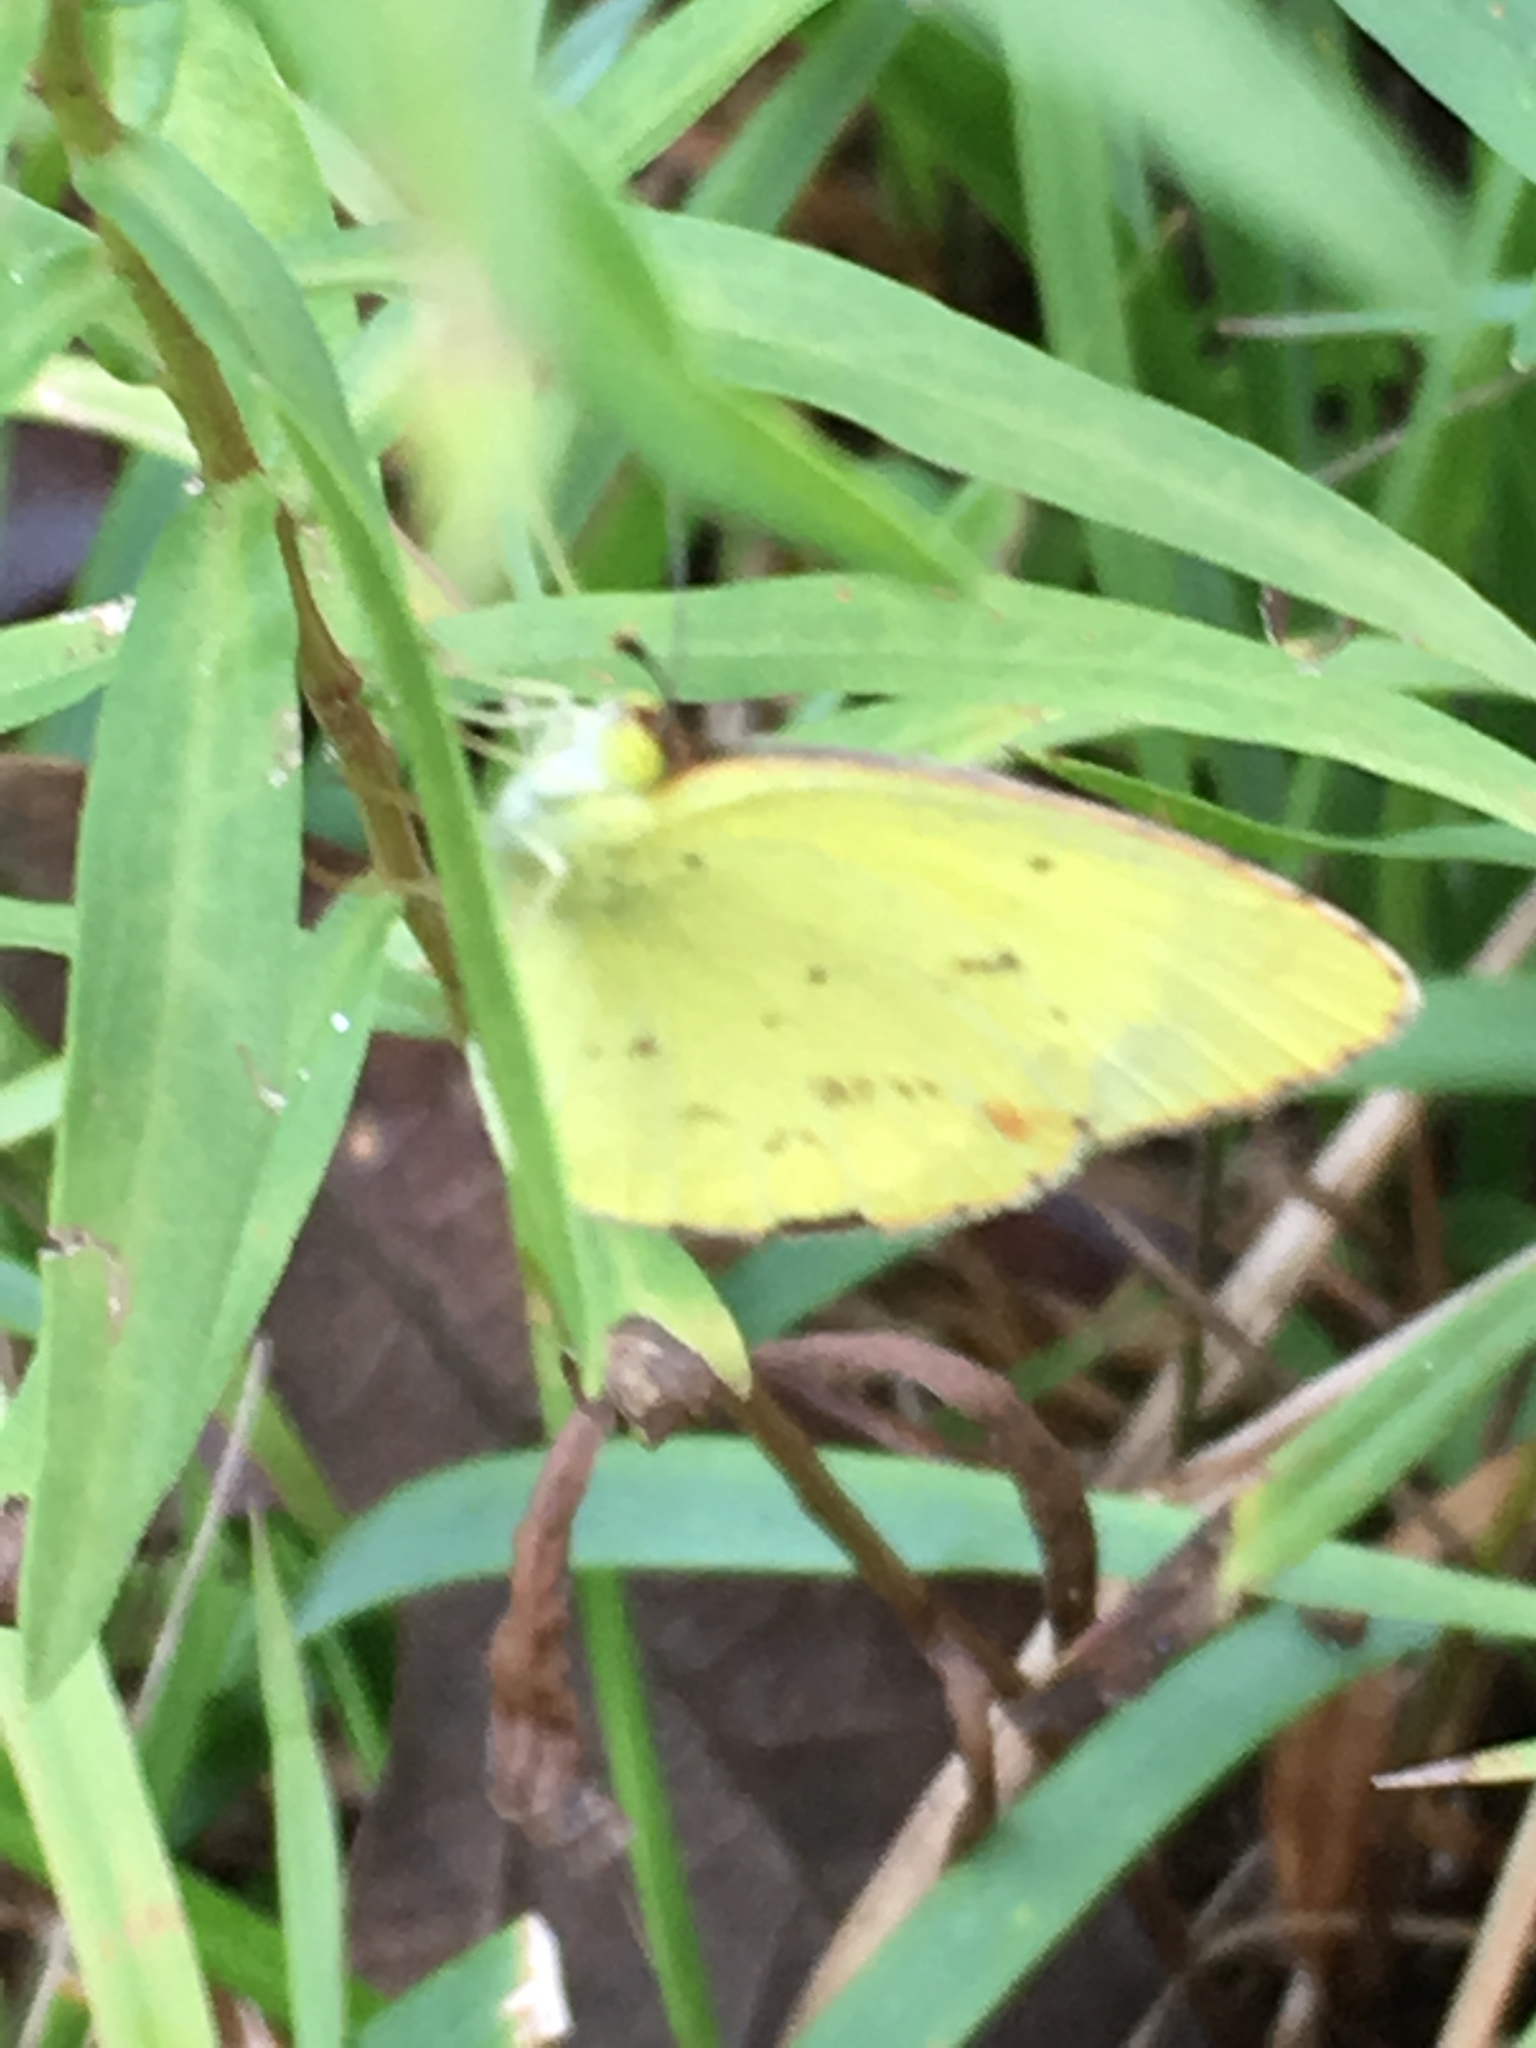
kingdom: Animalia
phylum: Arthropoda
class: Insecta
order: Lepidoptera
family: Pieridae
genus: Pyrisitia
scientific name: Pyrisitia lisa
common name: Little yellow
